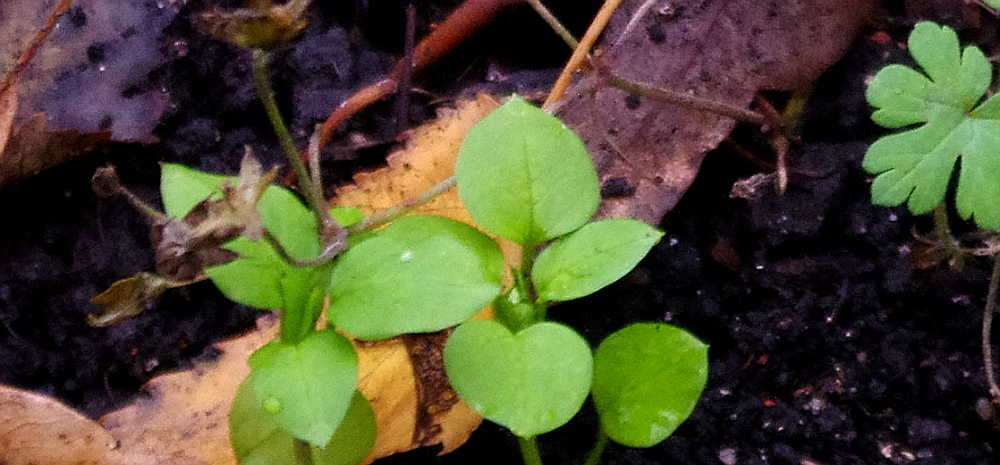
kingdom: Plantae
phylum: Tracheophyta
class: Magnoliopsida
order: Caryophyllales
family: Caryophyllaceae
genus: Stellaria
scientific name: Stellaria media
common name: Common chickweed
